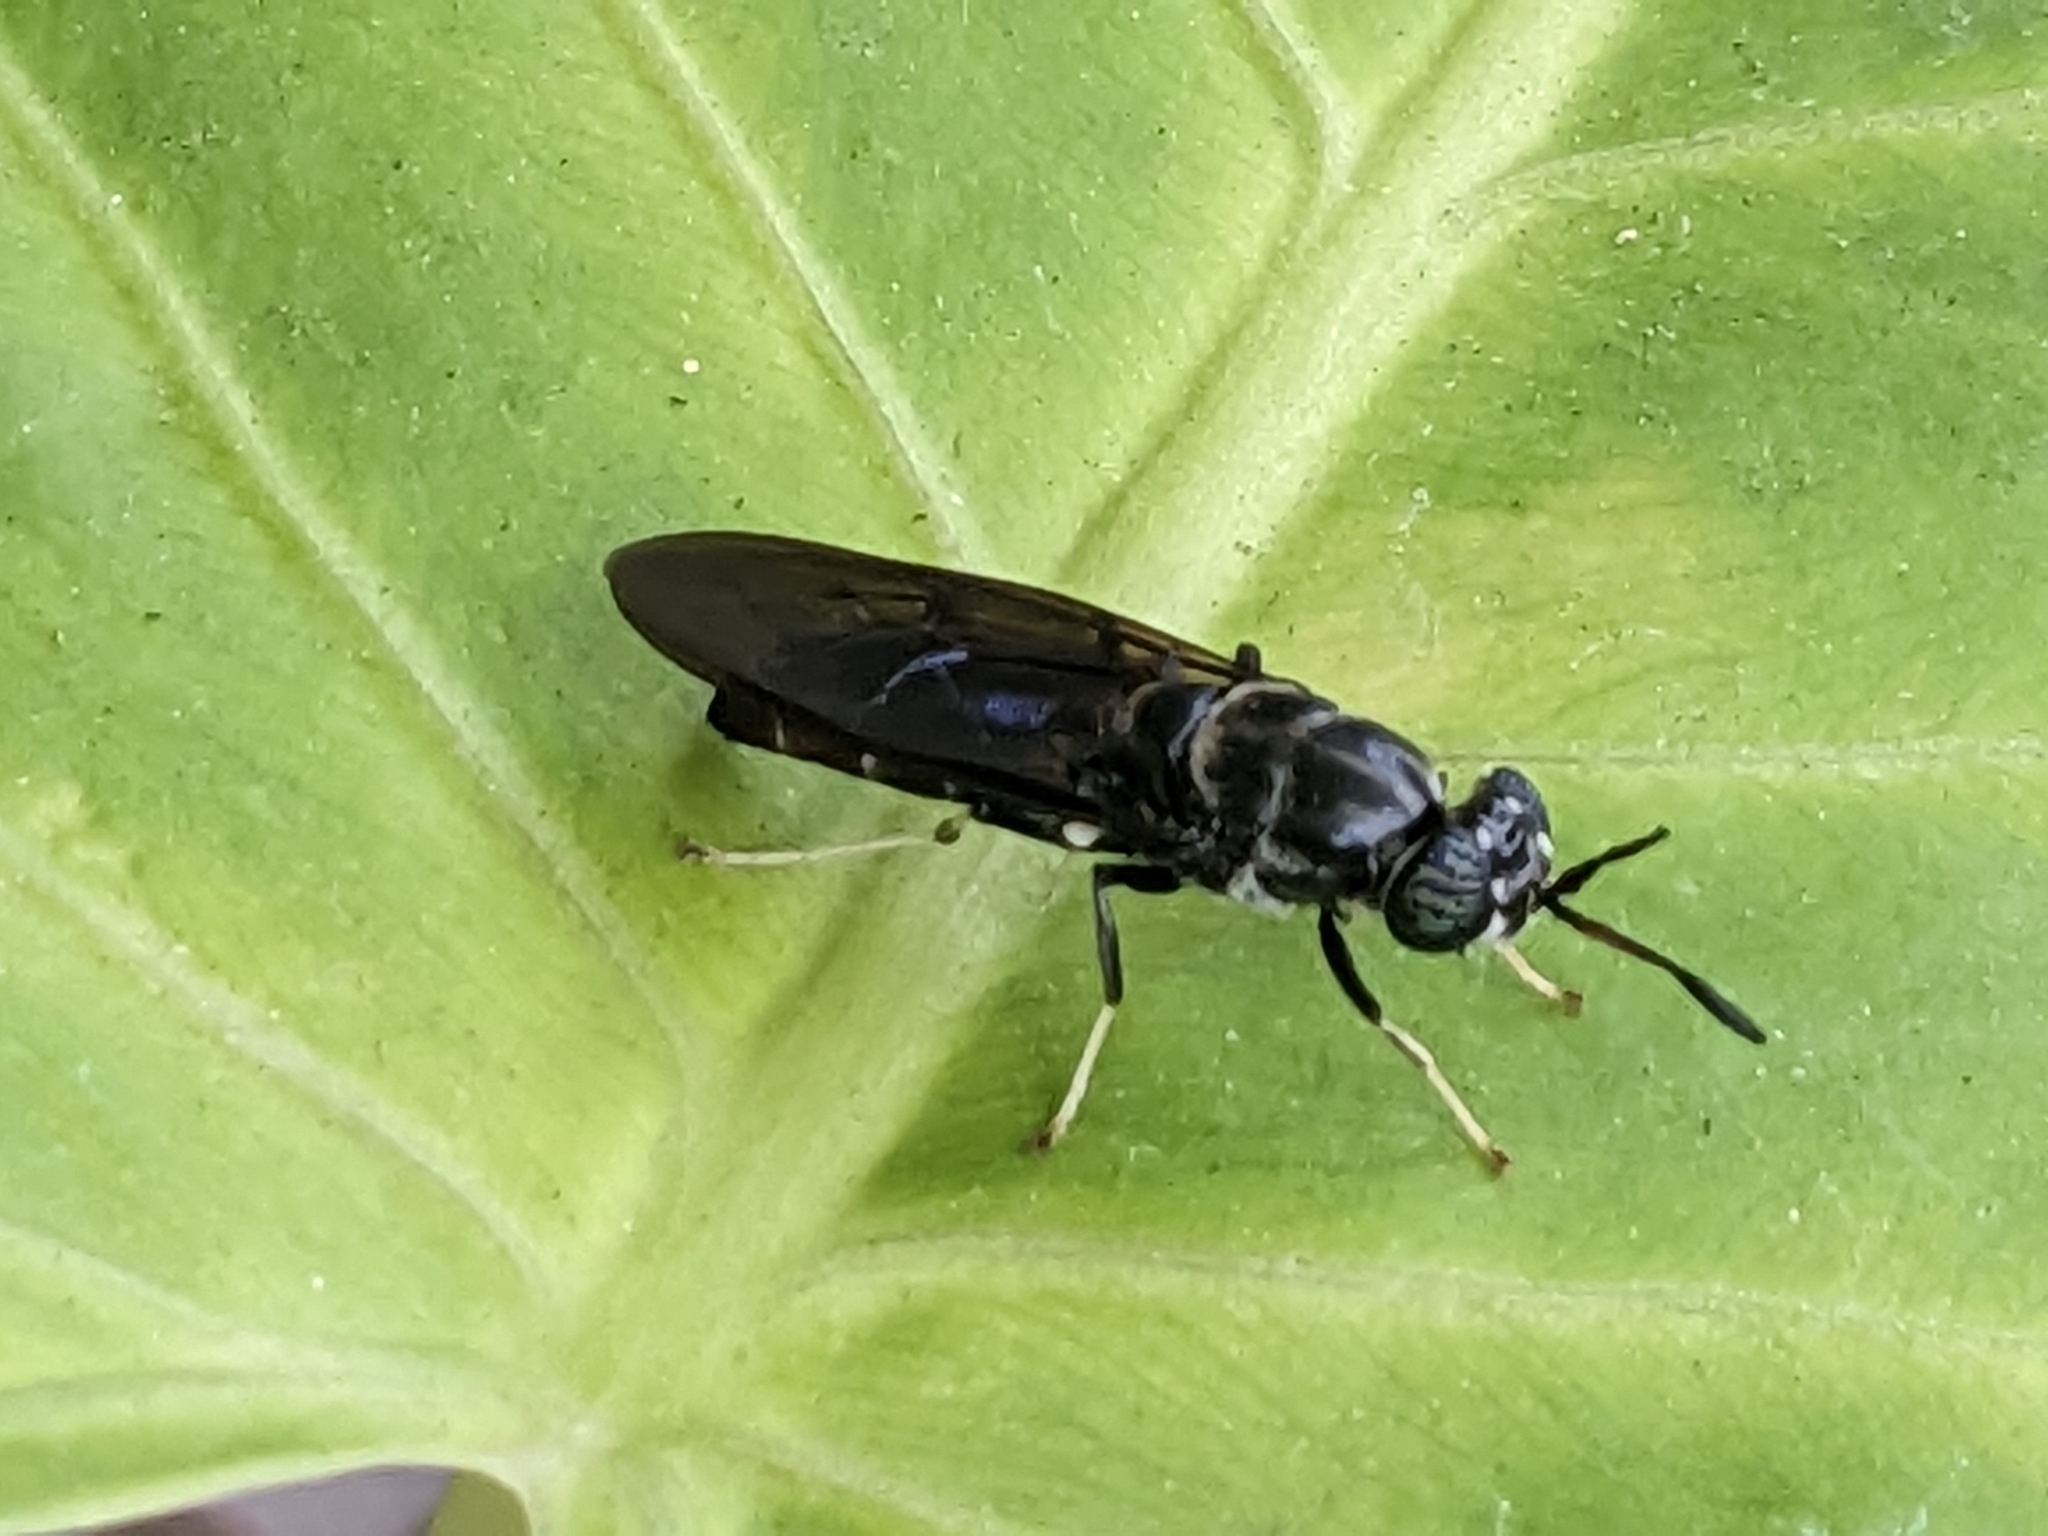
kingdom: Animalia
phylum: Arthropoda
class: Insecta
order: Diptera
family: Stratiomyidae
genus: Hermetia
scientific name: Hermetia illucens
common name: Black soldier fly
